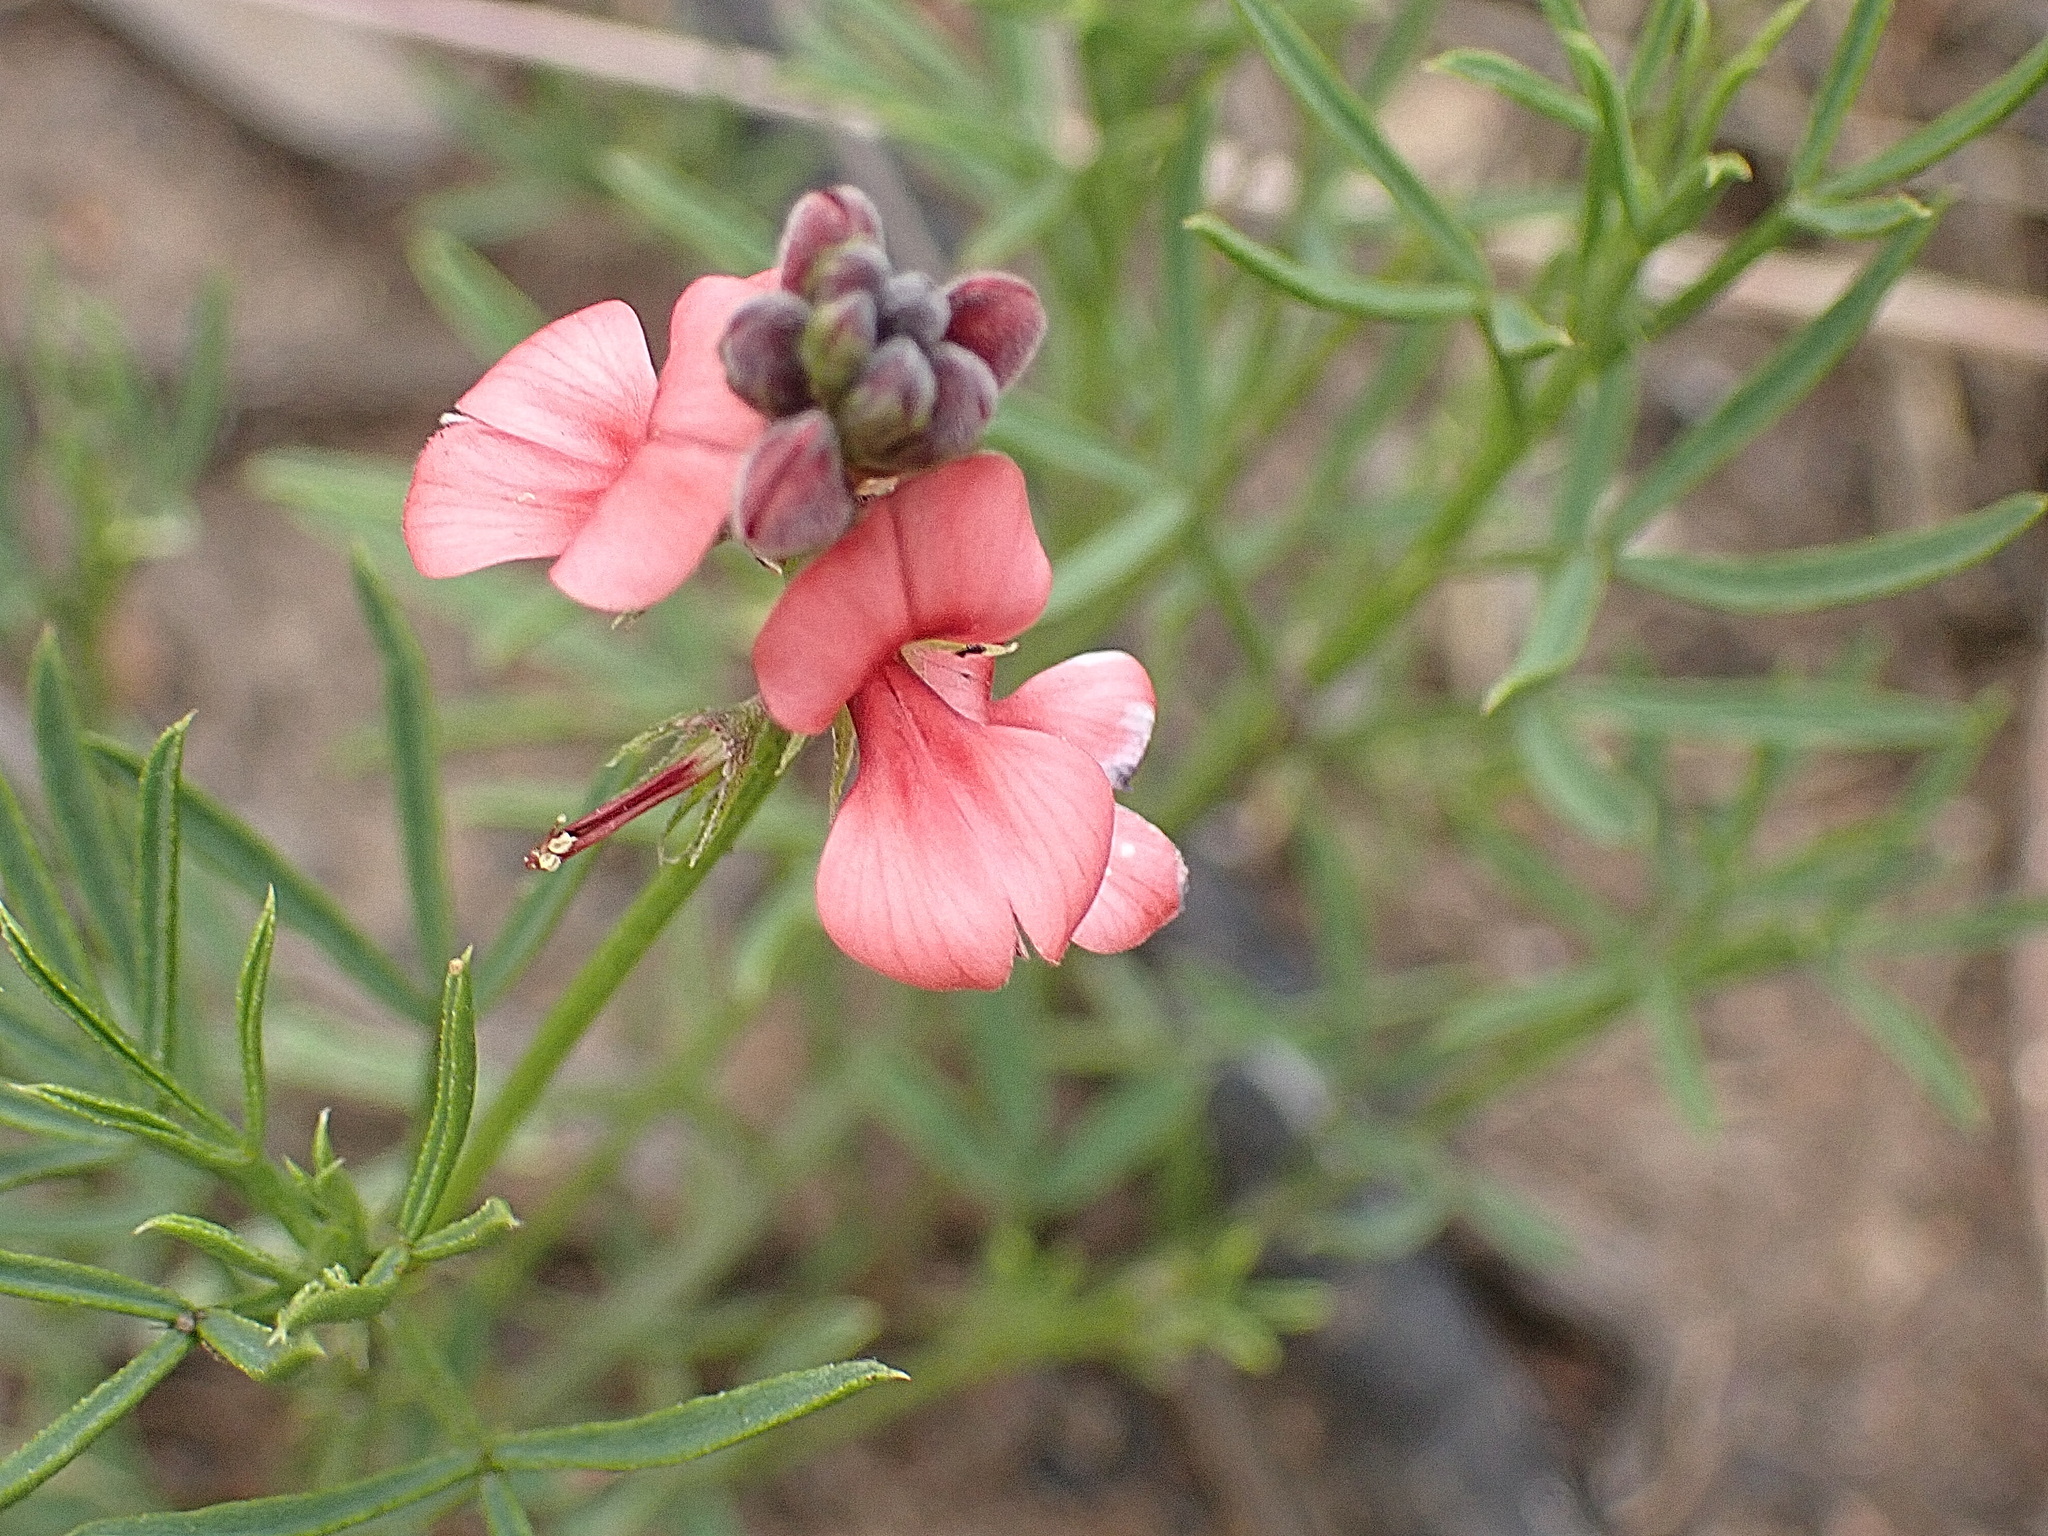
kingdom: Plantae
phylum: Tracheophyta
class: Magnoliopsida
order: Fabales
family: Fabaceae
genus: Indigofera
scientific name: Indigofera heterophylla
